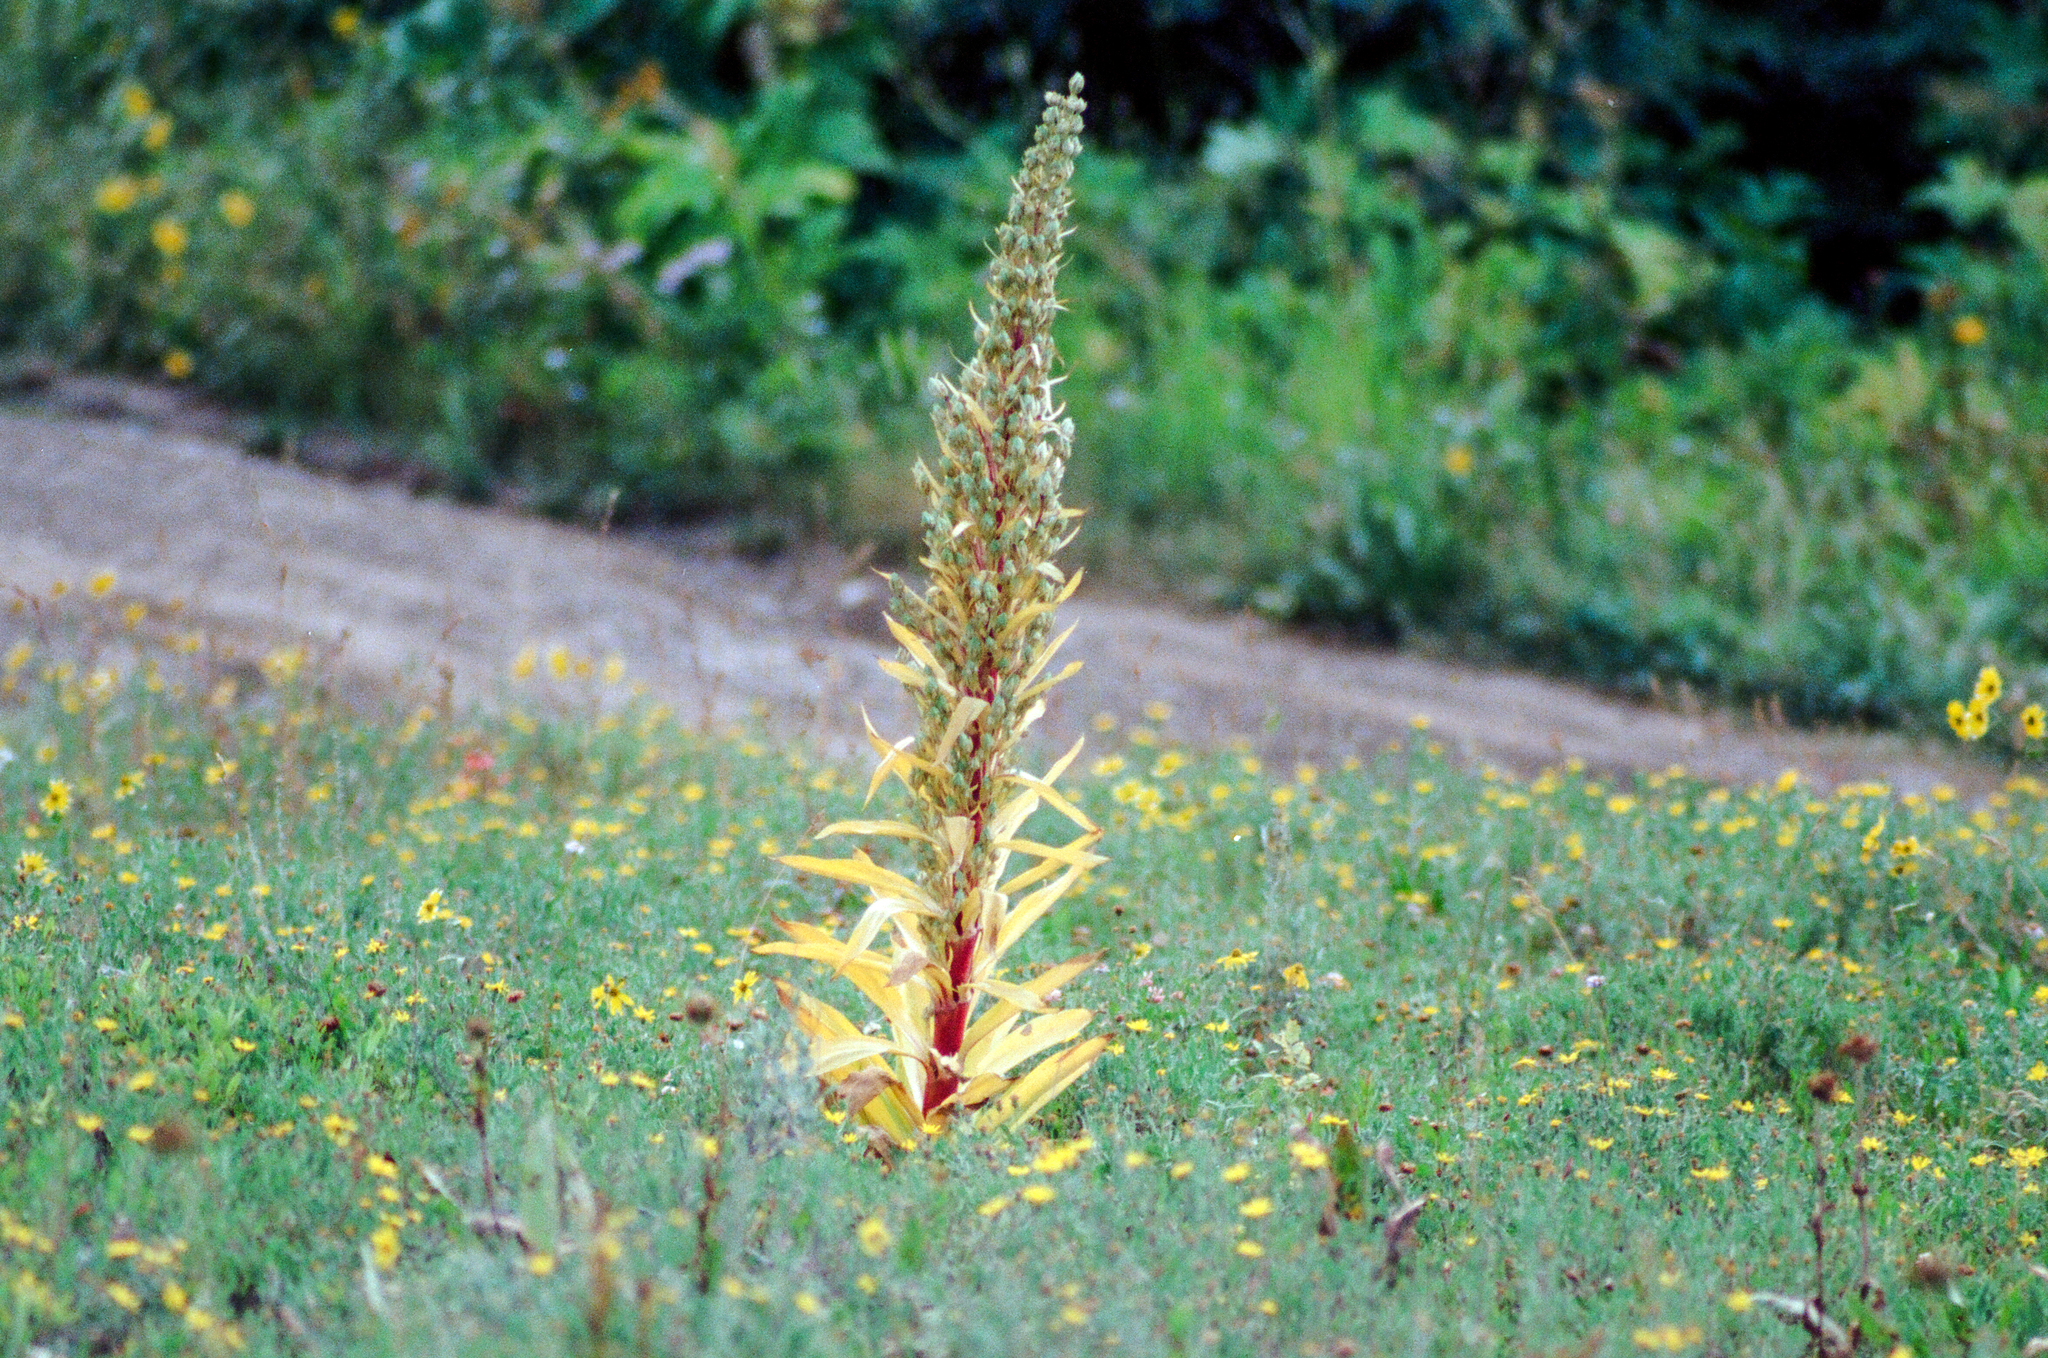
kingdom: Plantae
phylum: Tracheophyta
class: Magnoliopsida
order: Gentianales
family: Gentianaceae
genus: Frasera
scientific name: Frasera speciosa
